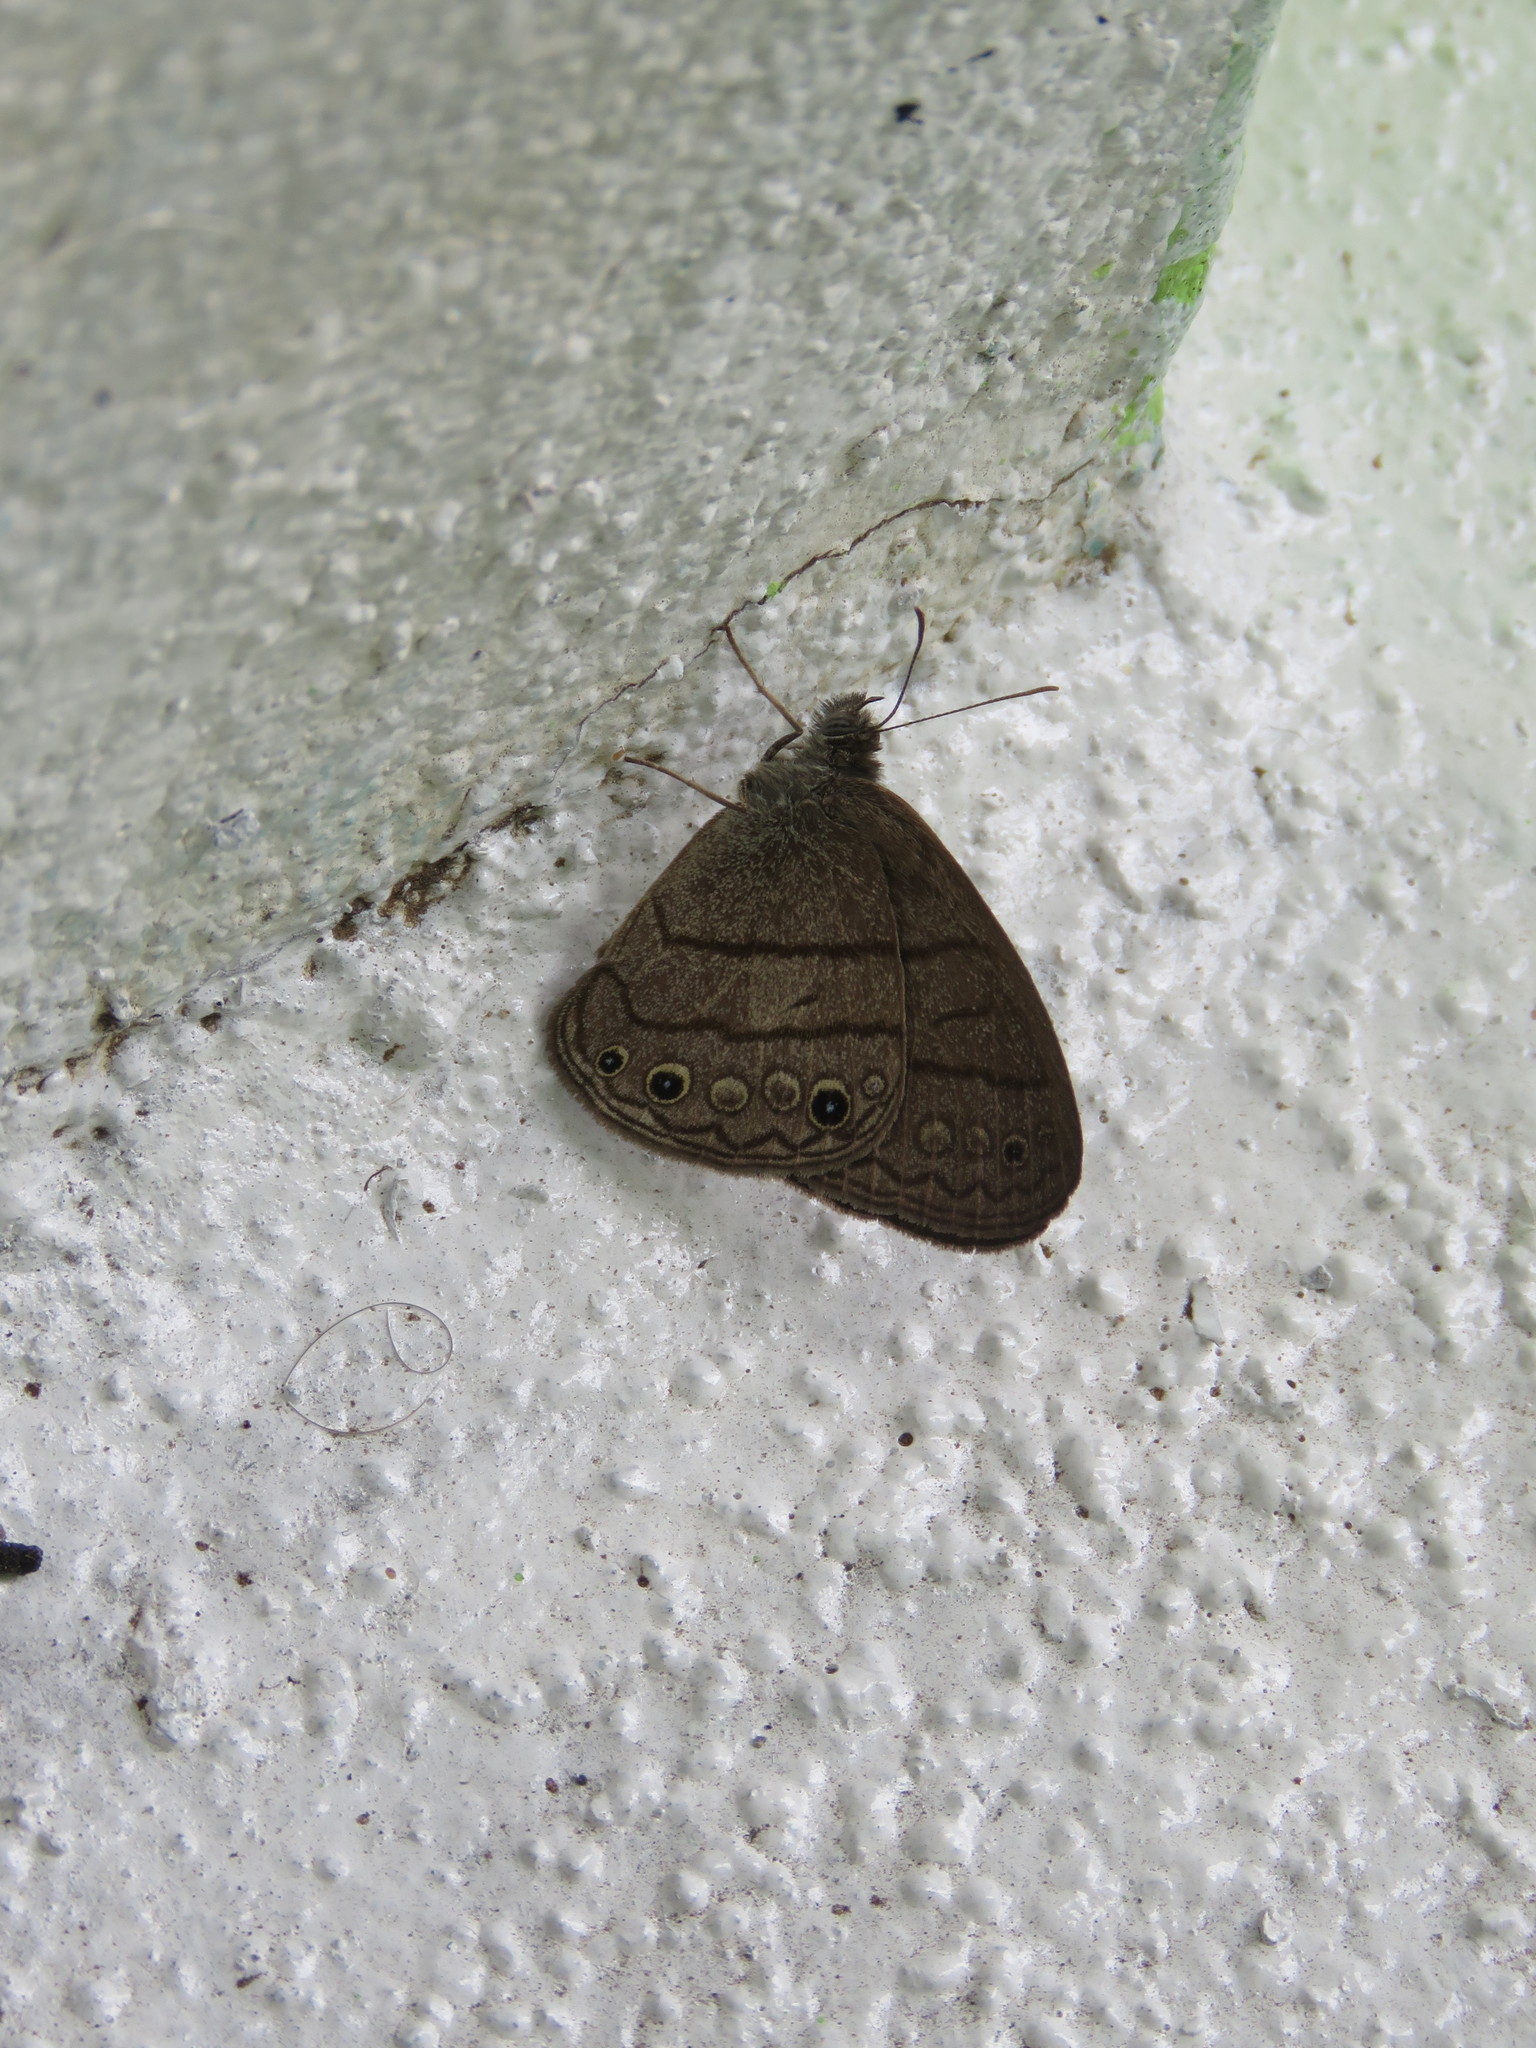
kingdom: Animalia
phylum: Arthropoda
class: Insecta
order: Lepidoptera
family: Nymphalidae
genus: Hermeuptychia
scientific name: Hermeuptychia hermes
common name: Hermes satyr
